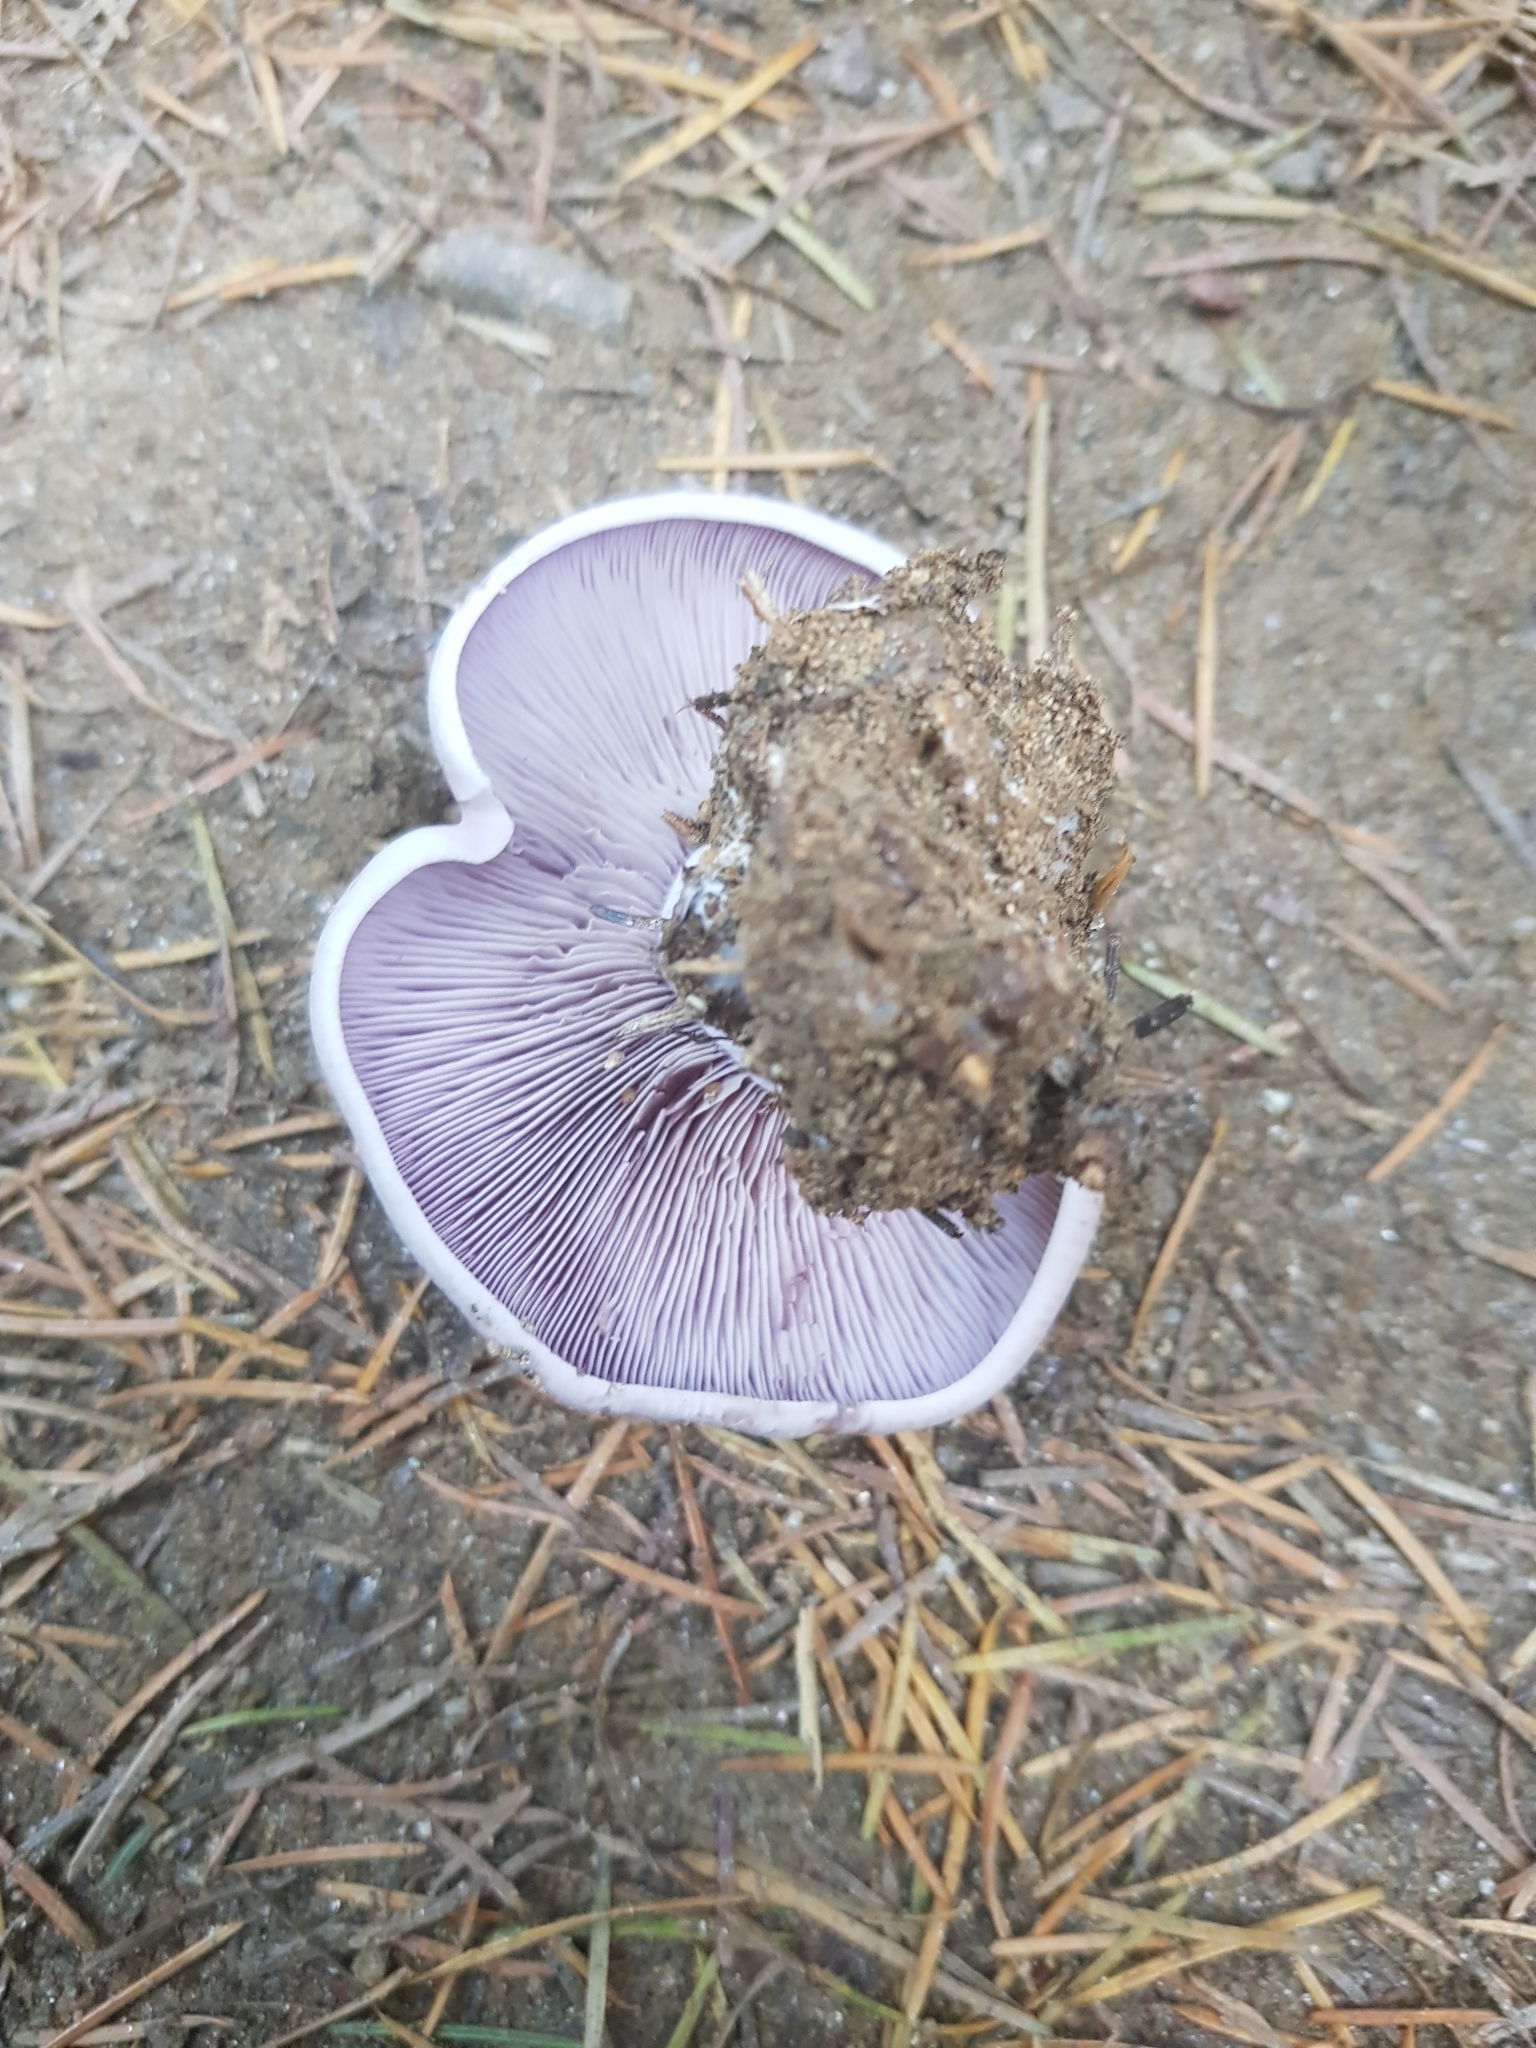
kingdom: Fungi
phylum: Basidiomycota
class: Agaricomycetes
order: Agaricales
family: Tricholomataceae
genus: Collybia
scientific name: Collybia
